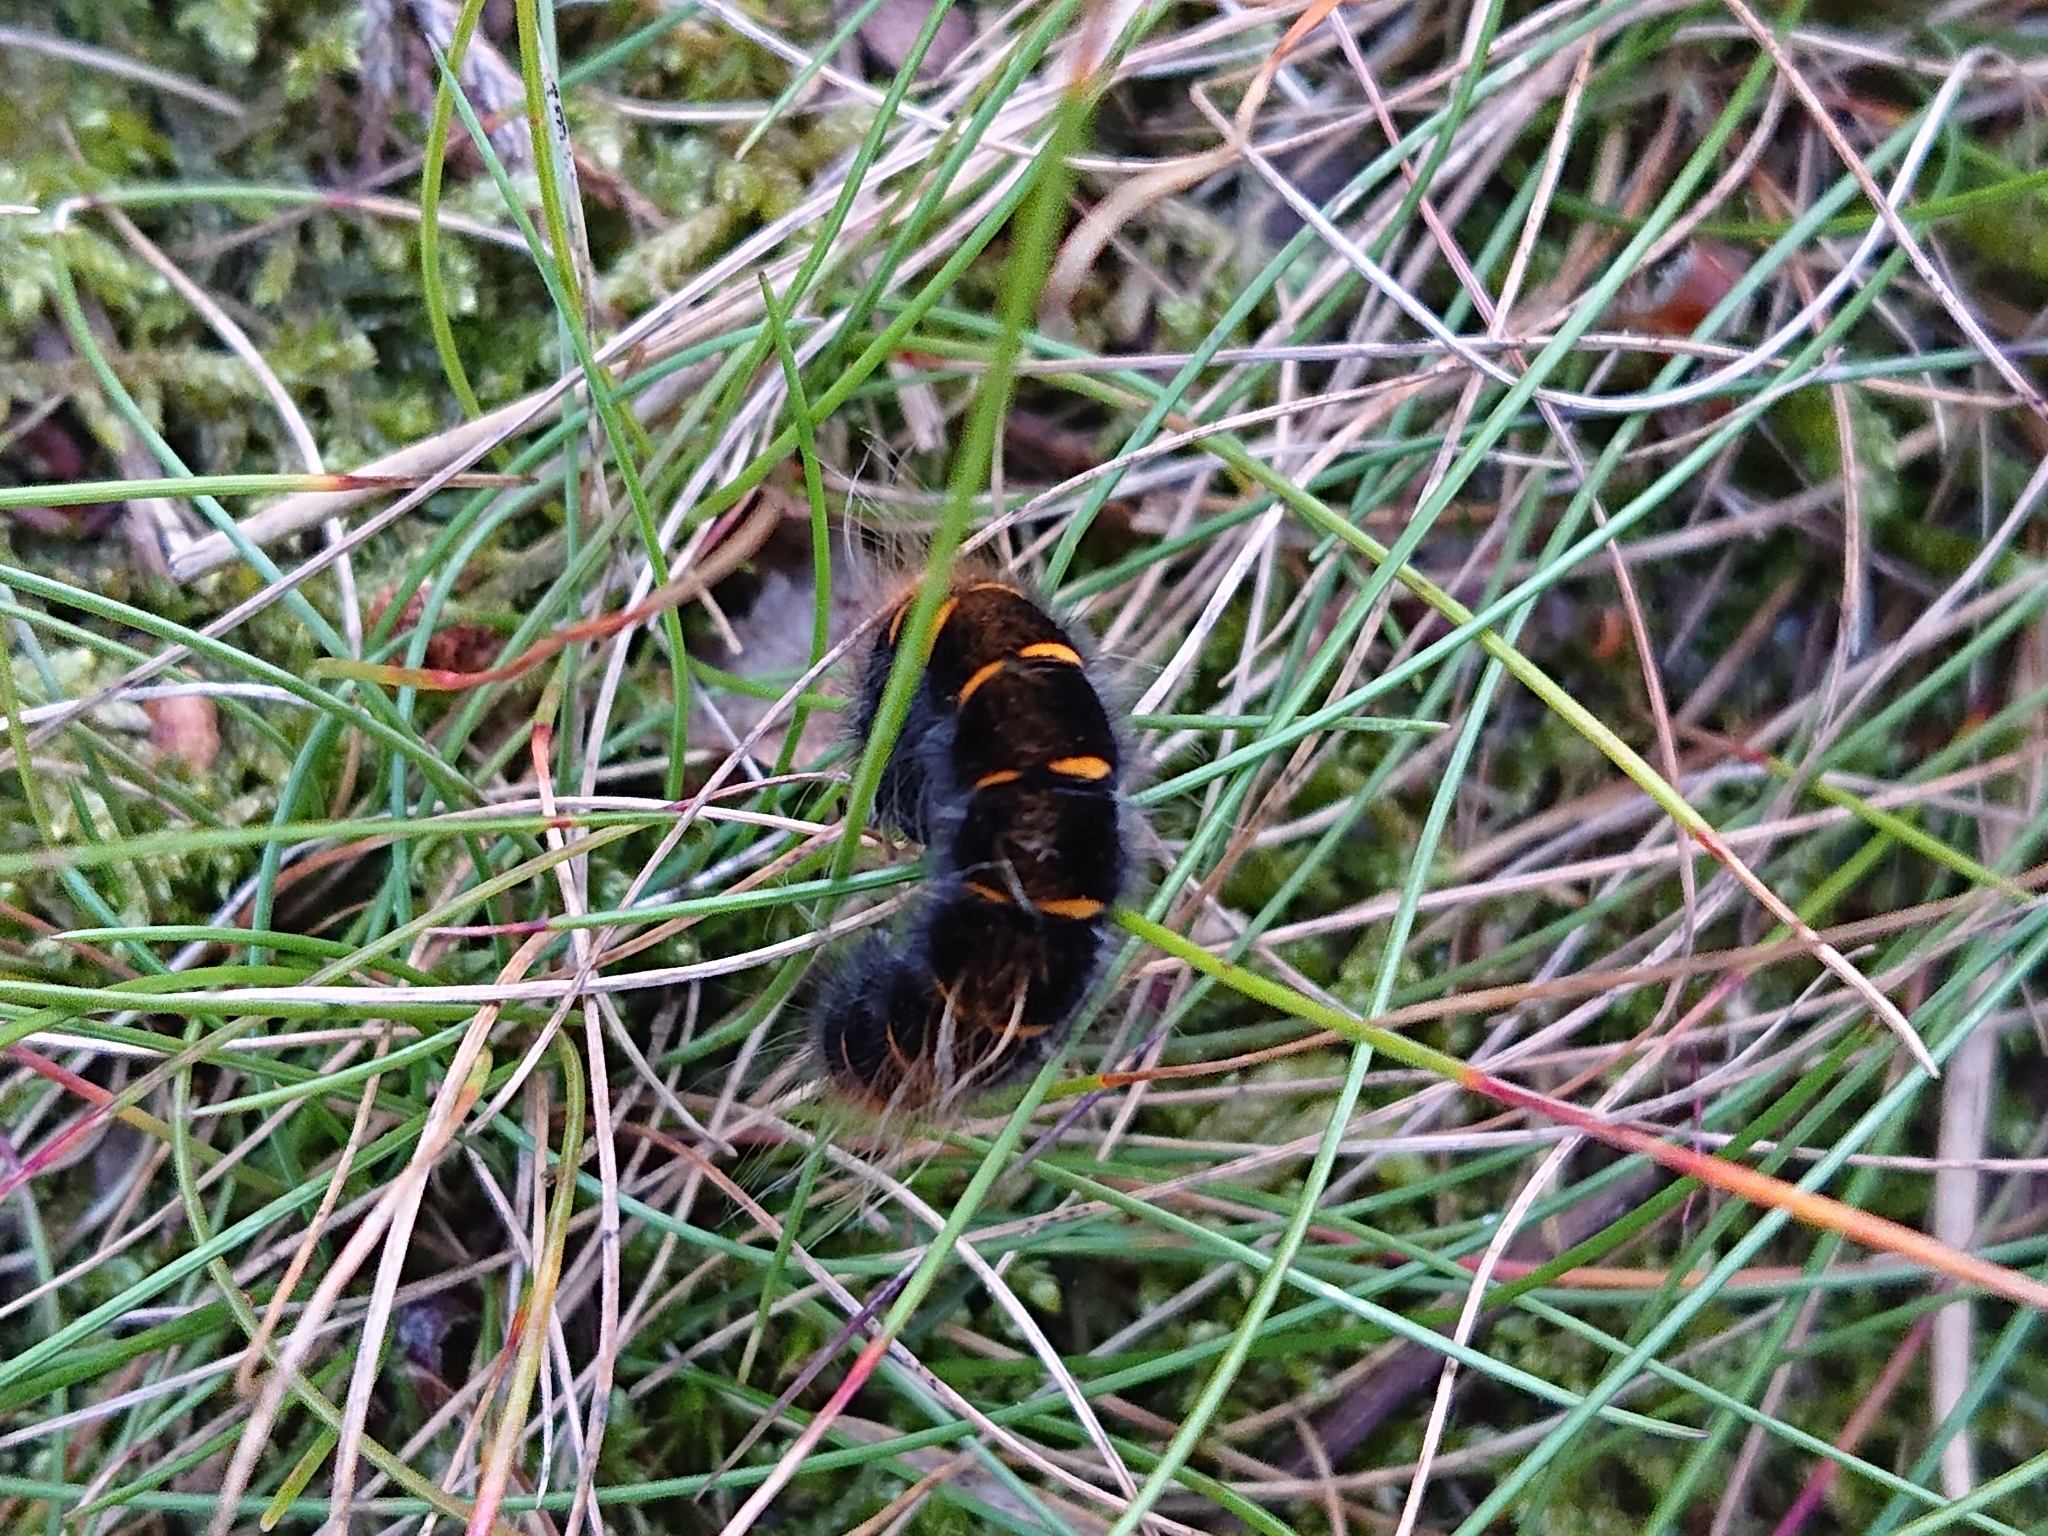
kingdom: Animalia
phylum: Arthropoda
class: Insecta
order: Lepidoptera
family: Lasiocampidae
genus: Macrothylacia
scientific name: Macrothylacia rubi
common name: Fox moth
